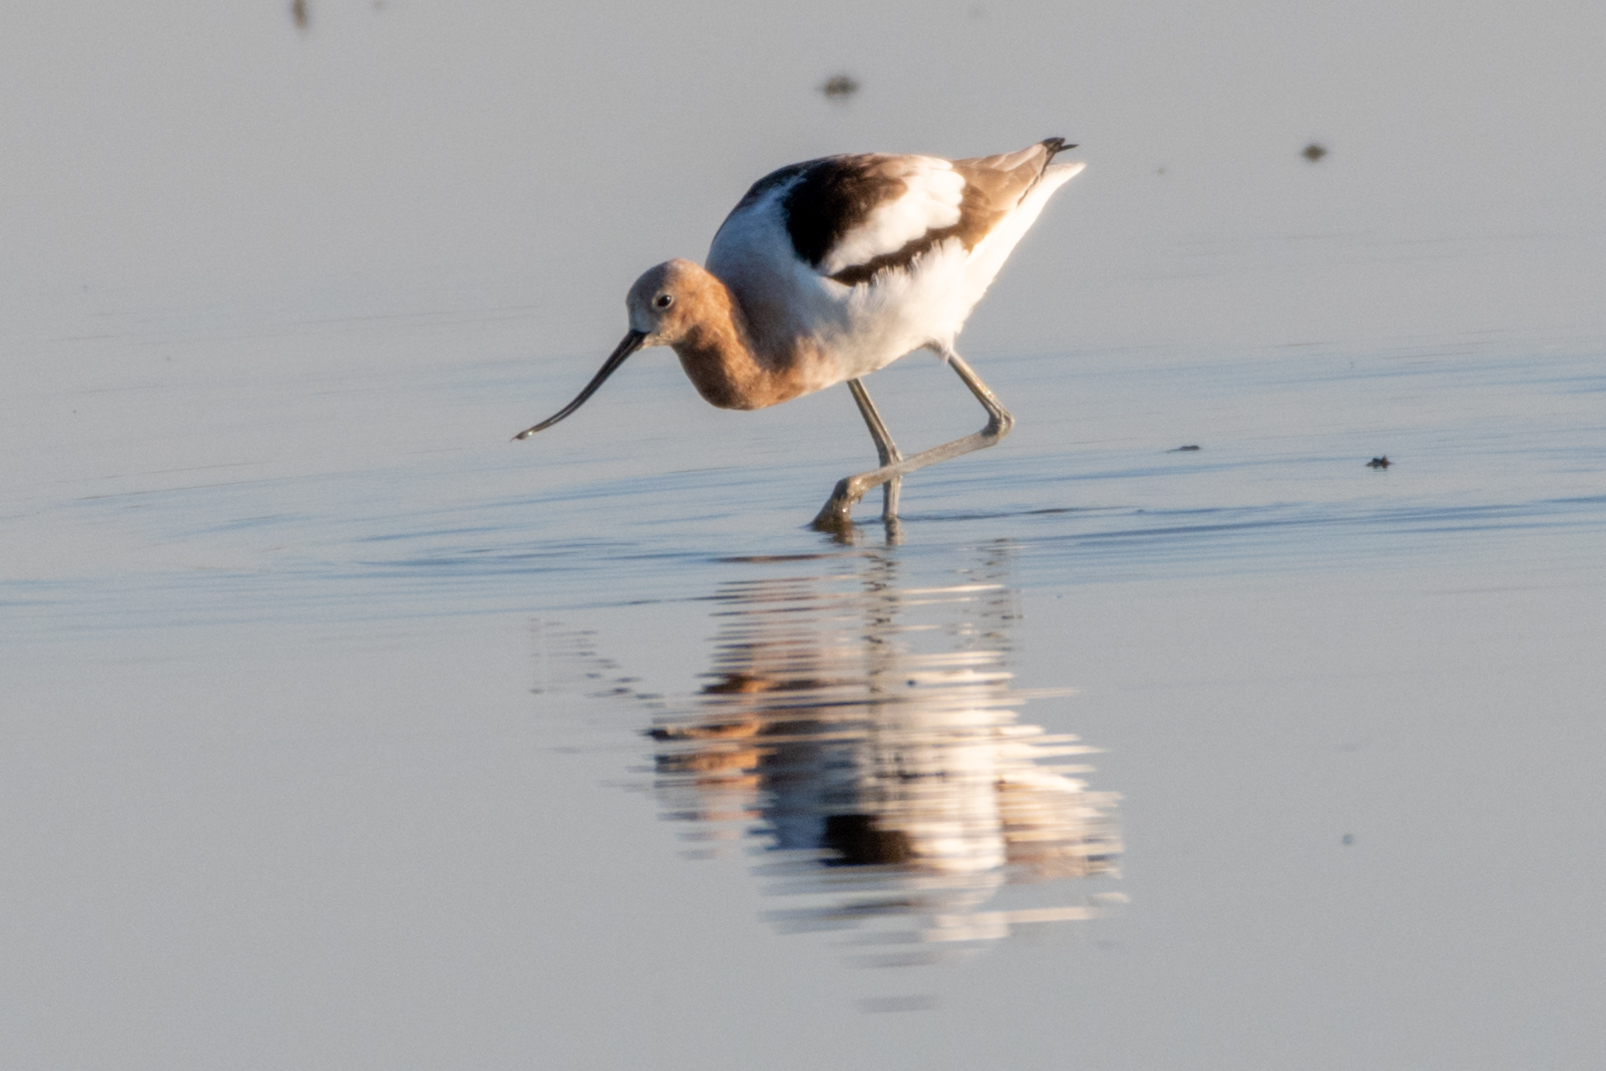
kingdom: Animalia
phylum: Chordata
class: Aves
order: Charadriiformes
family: Recurvirostridae
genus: Recurvirostra
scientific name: Recurvirostra americana
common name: American avocet
